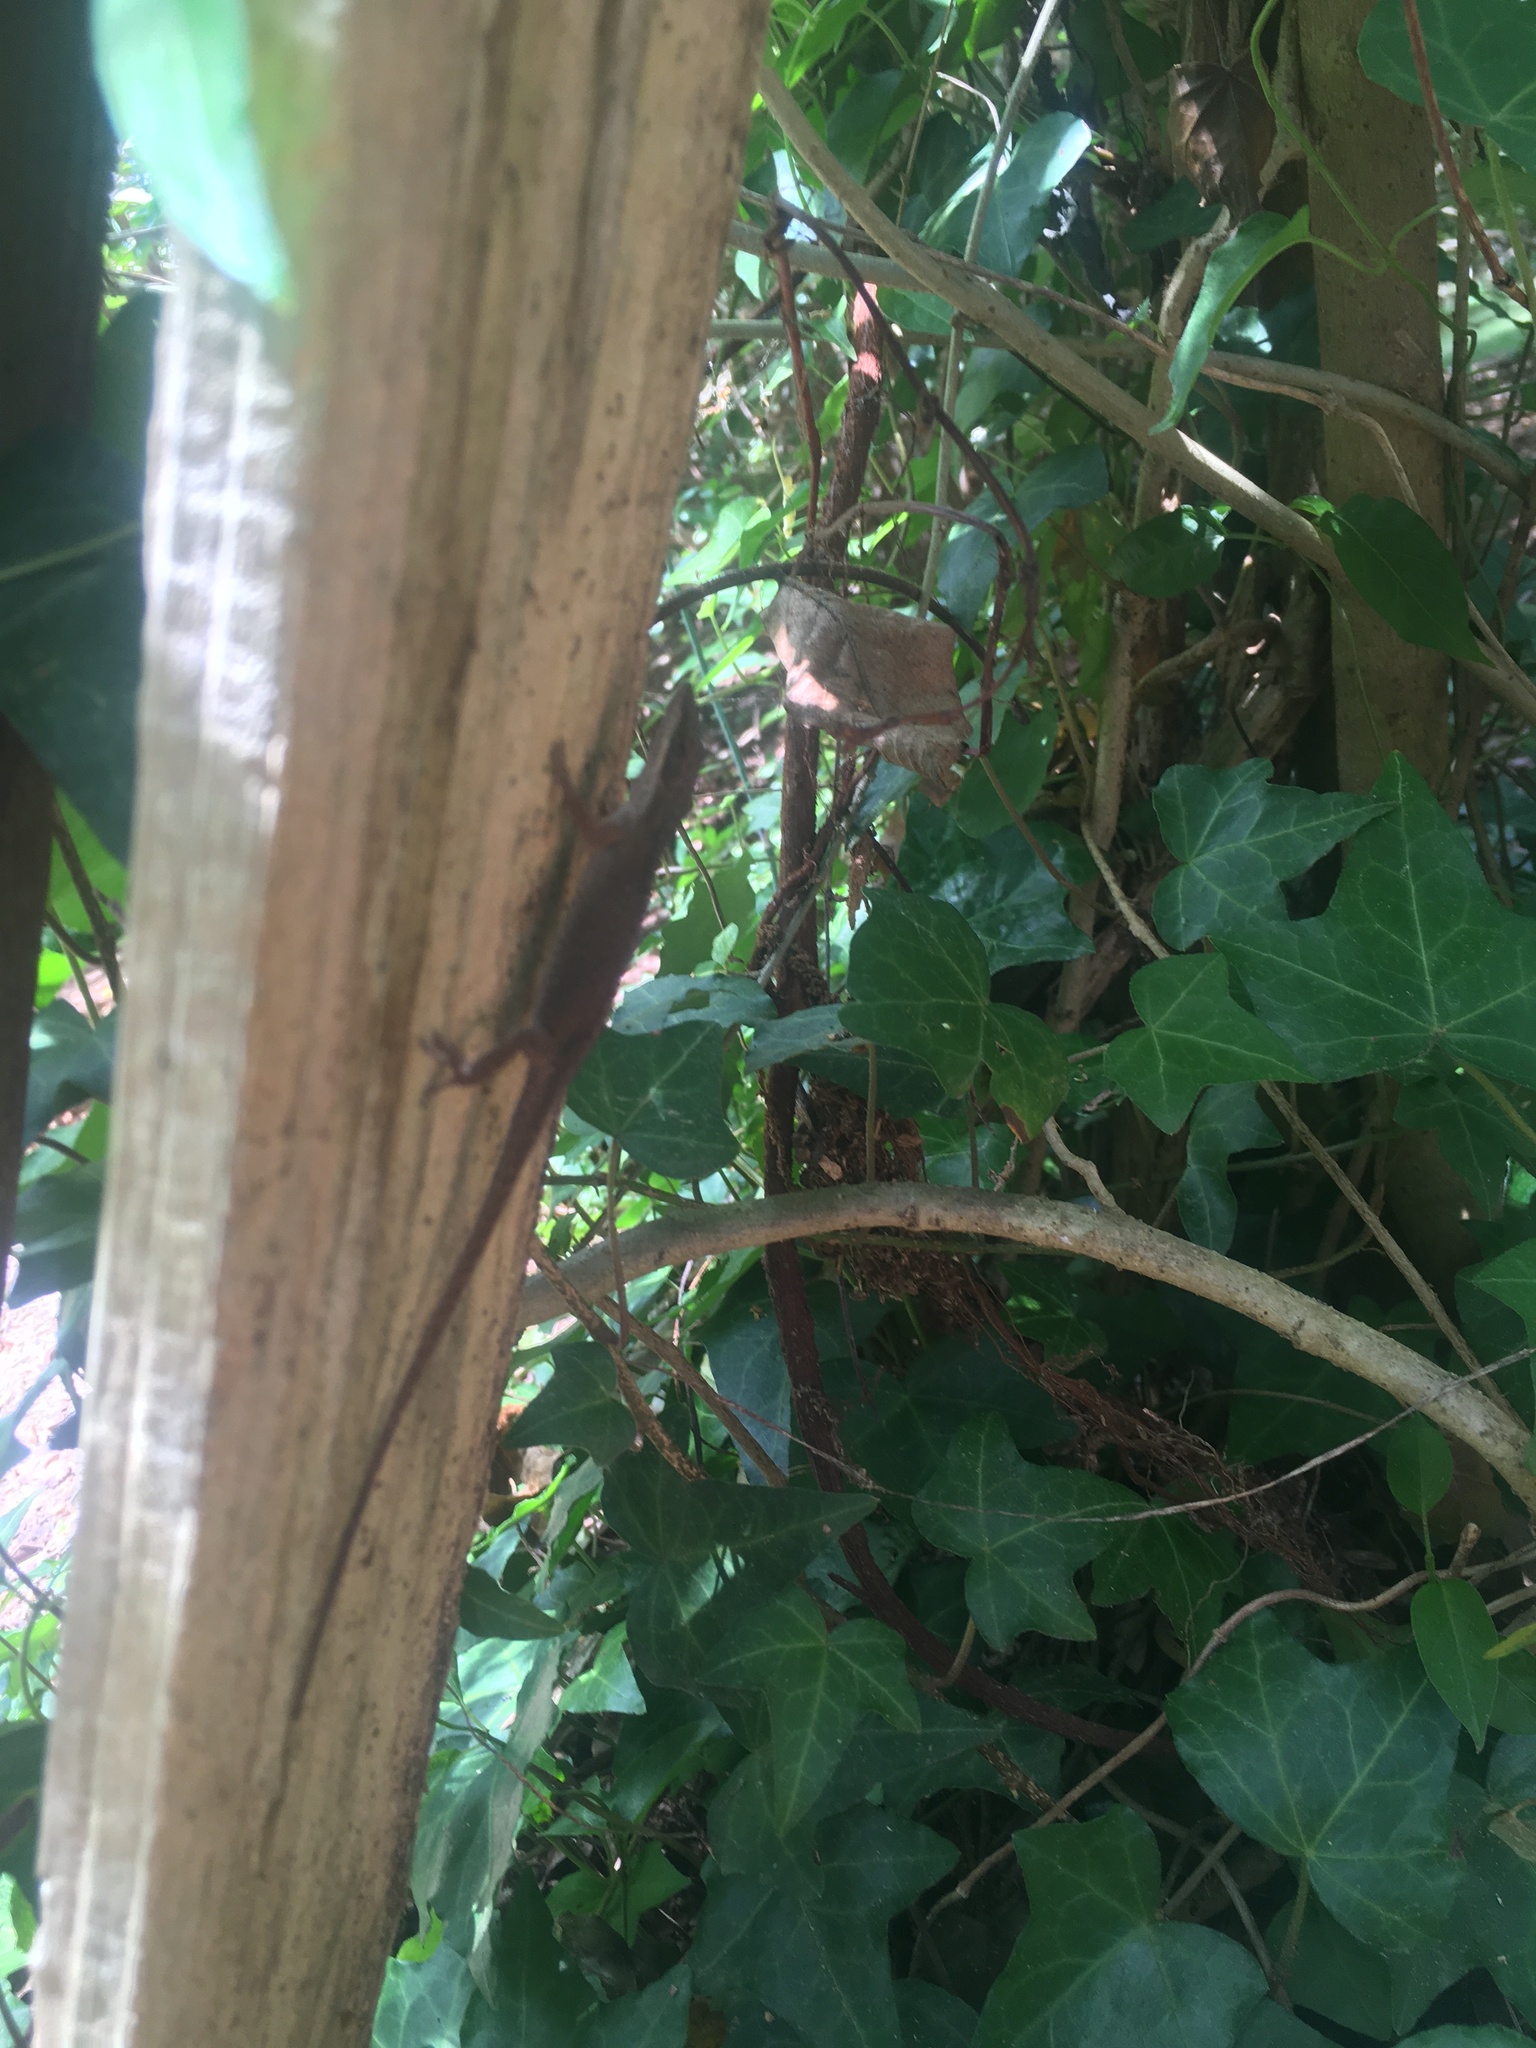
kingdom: Animalia
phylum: Chordata
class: Squamata
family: Dactyloidae
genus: Anolis
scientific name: Anolis carolinensis
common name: Green anole
